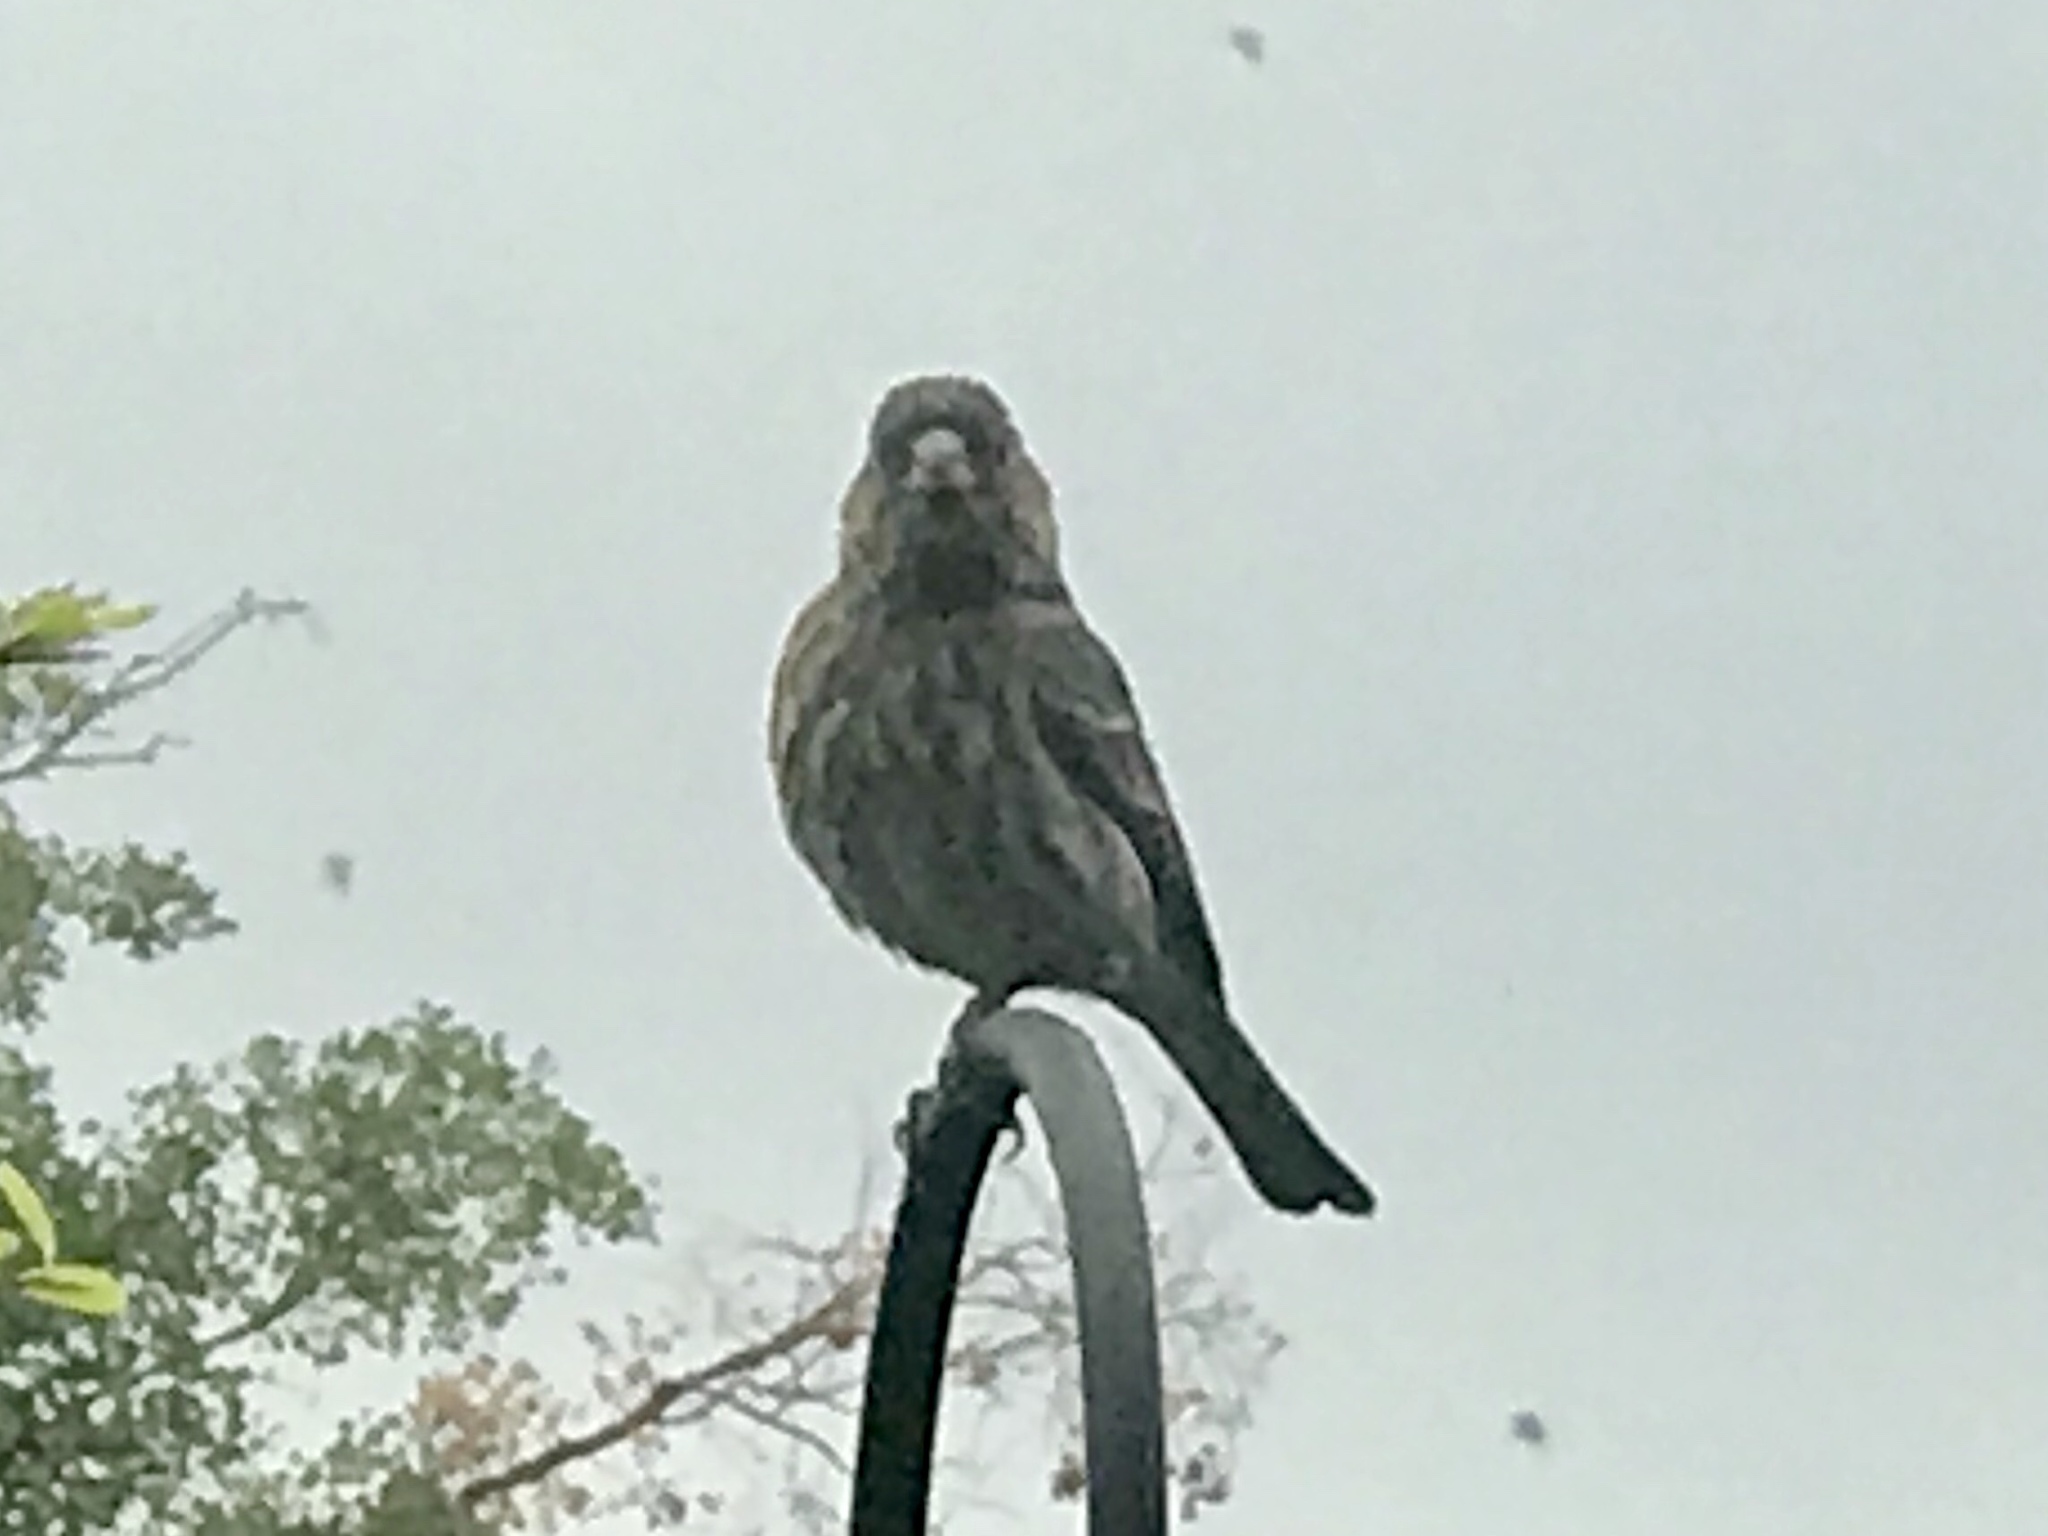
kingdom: Animalia
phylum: Chordata
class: Aves
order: Passeriformes
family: Fringillidae
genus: Haemorhous
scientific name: Haemorhous mexicanus
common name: House finch
